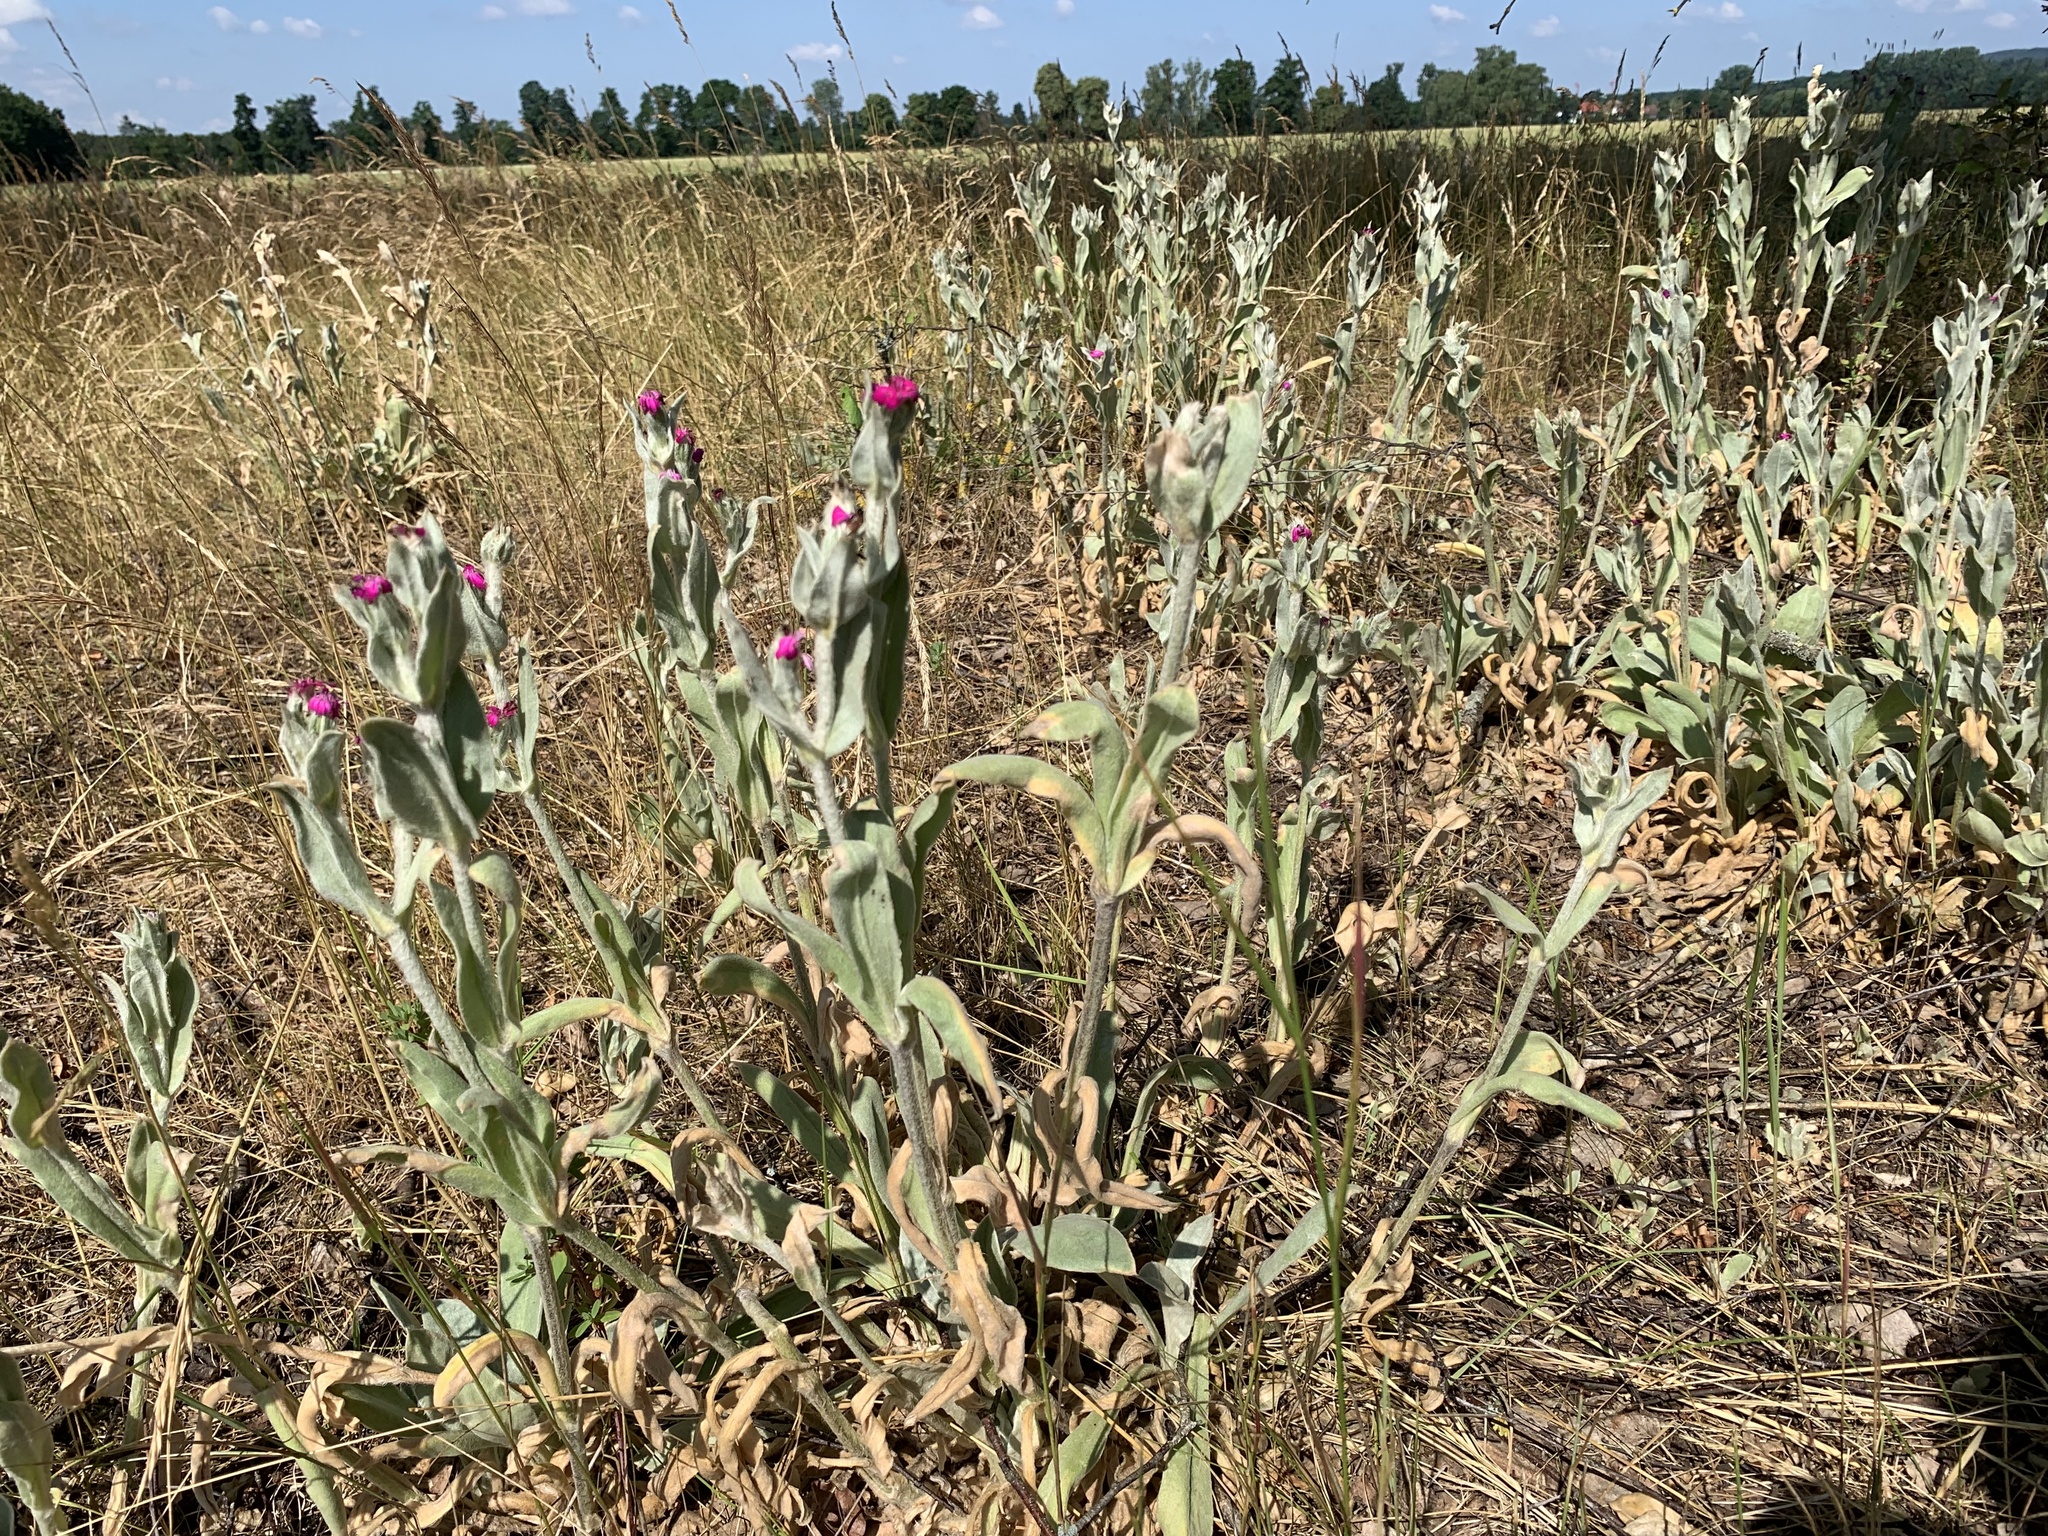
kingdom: Plantae
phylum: Tracheophyta
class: Magnoliopsida
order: Caryophyllales
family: Caryophyllaceae
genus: Silene
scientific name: Silene coronaria
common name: Rose campion
